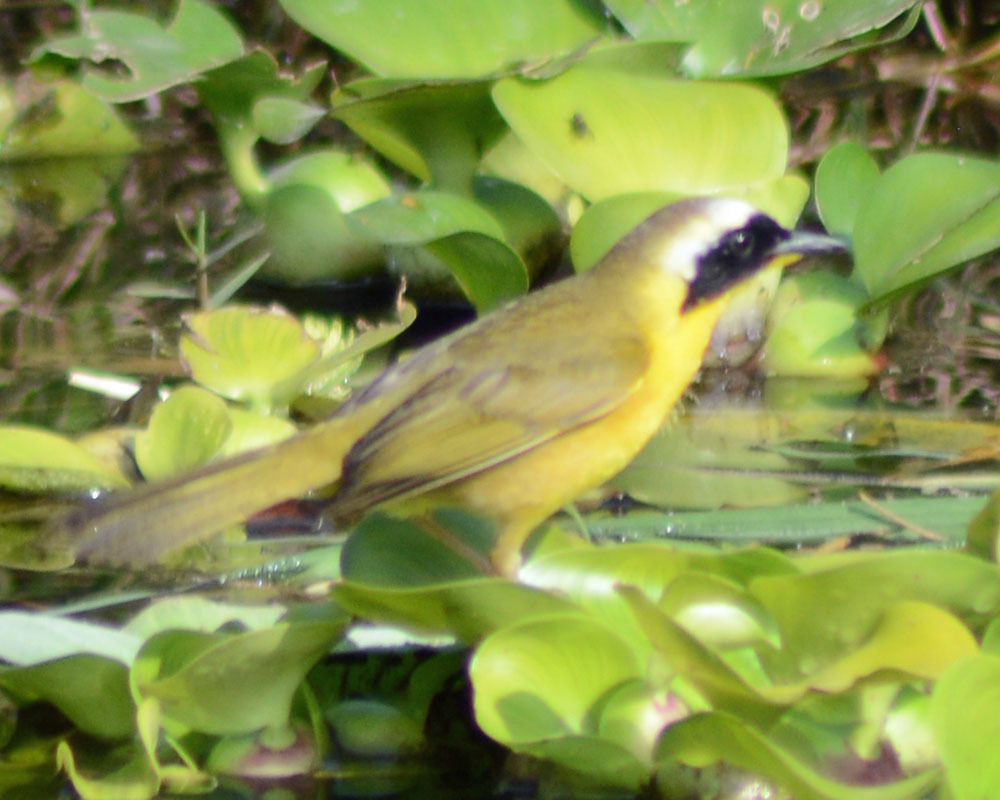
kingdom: Animalia
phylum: Chordata
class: Aves
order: Passeriformes
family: Parulidae
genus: Geothlypis
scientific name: Geothlypis trichas
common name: Common yellowthroat
